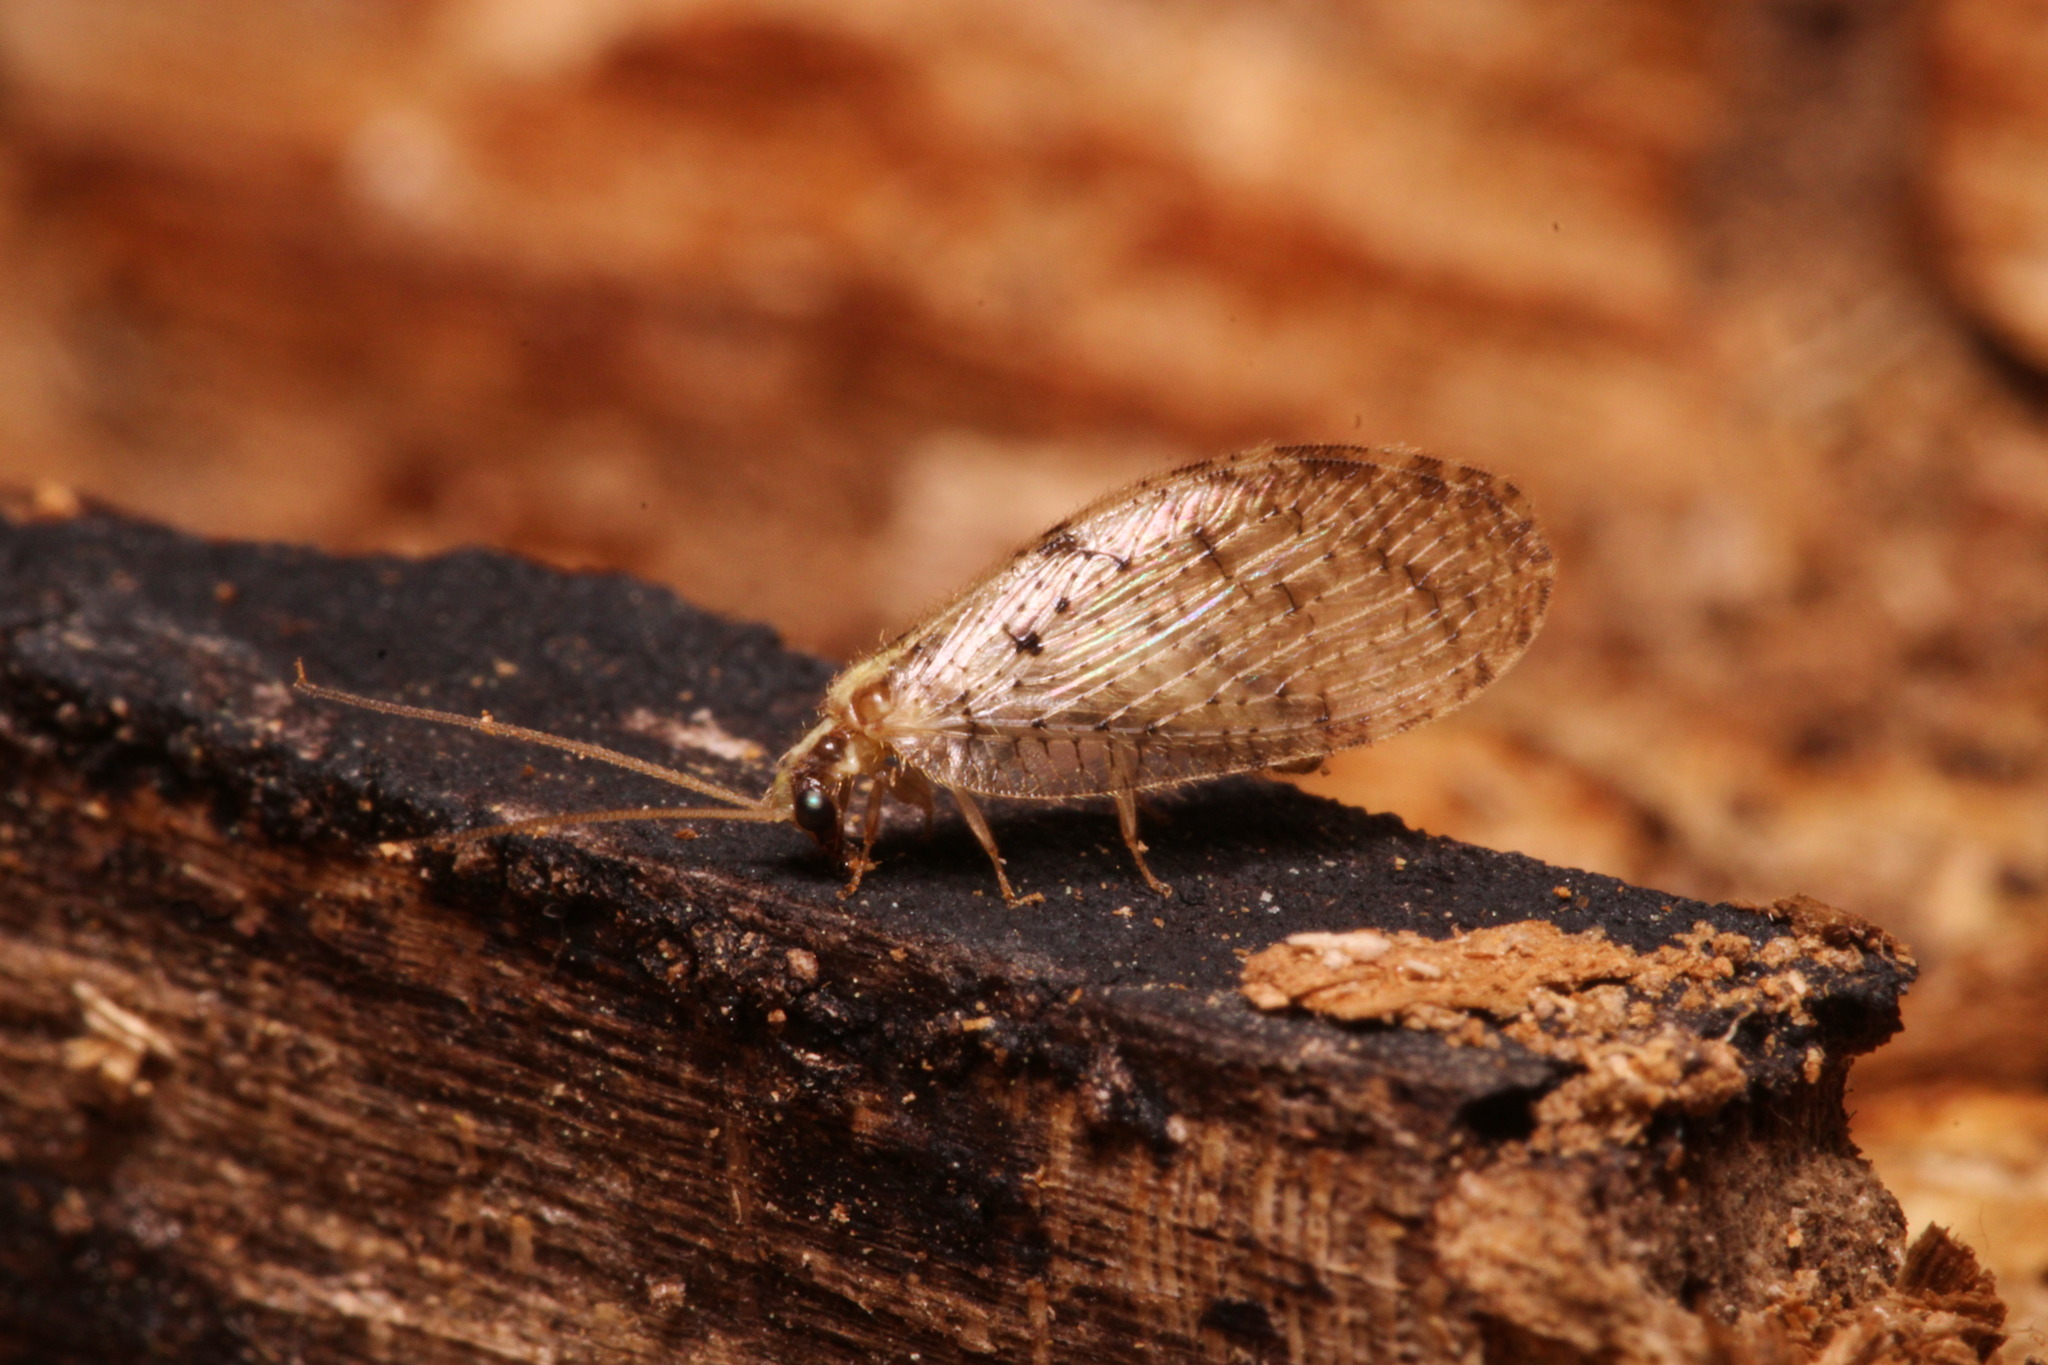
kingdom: Animalia
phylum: Arthropoda
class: Insecta
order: Neuroptera
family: Hemerobiidae
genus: Hemerobius
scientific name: Hemerobius humulinus
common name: Humulin brown lacewing
